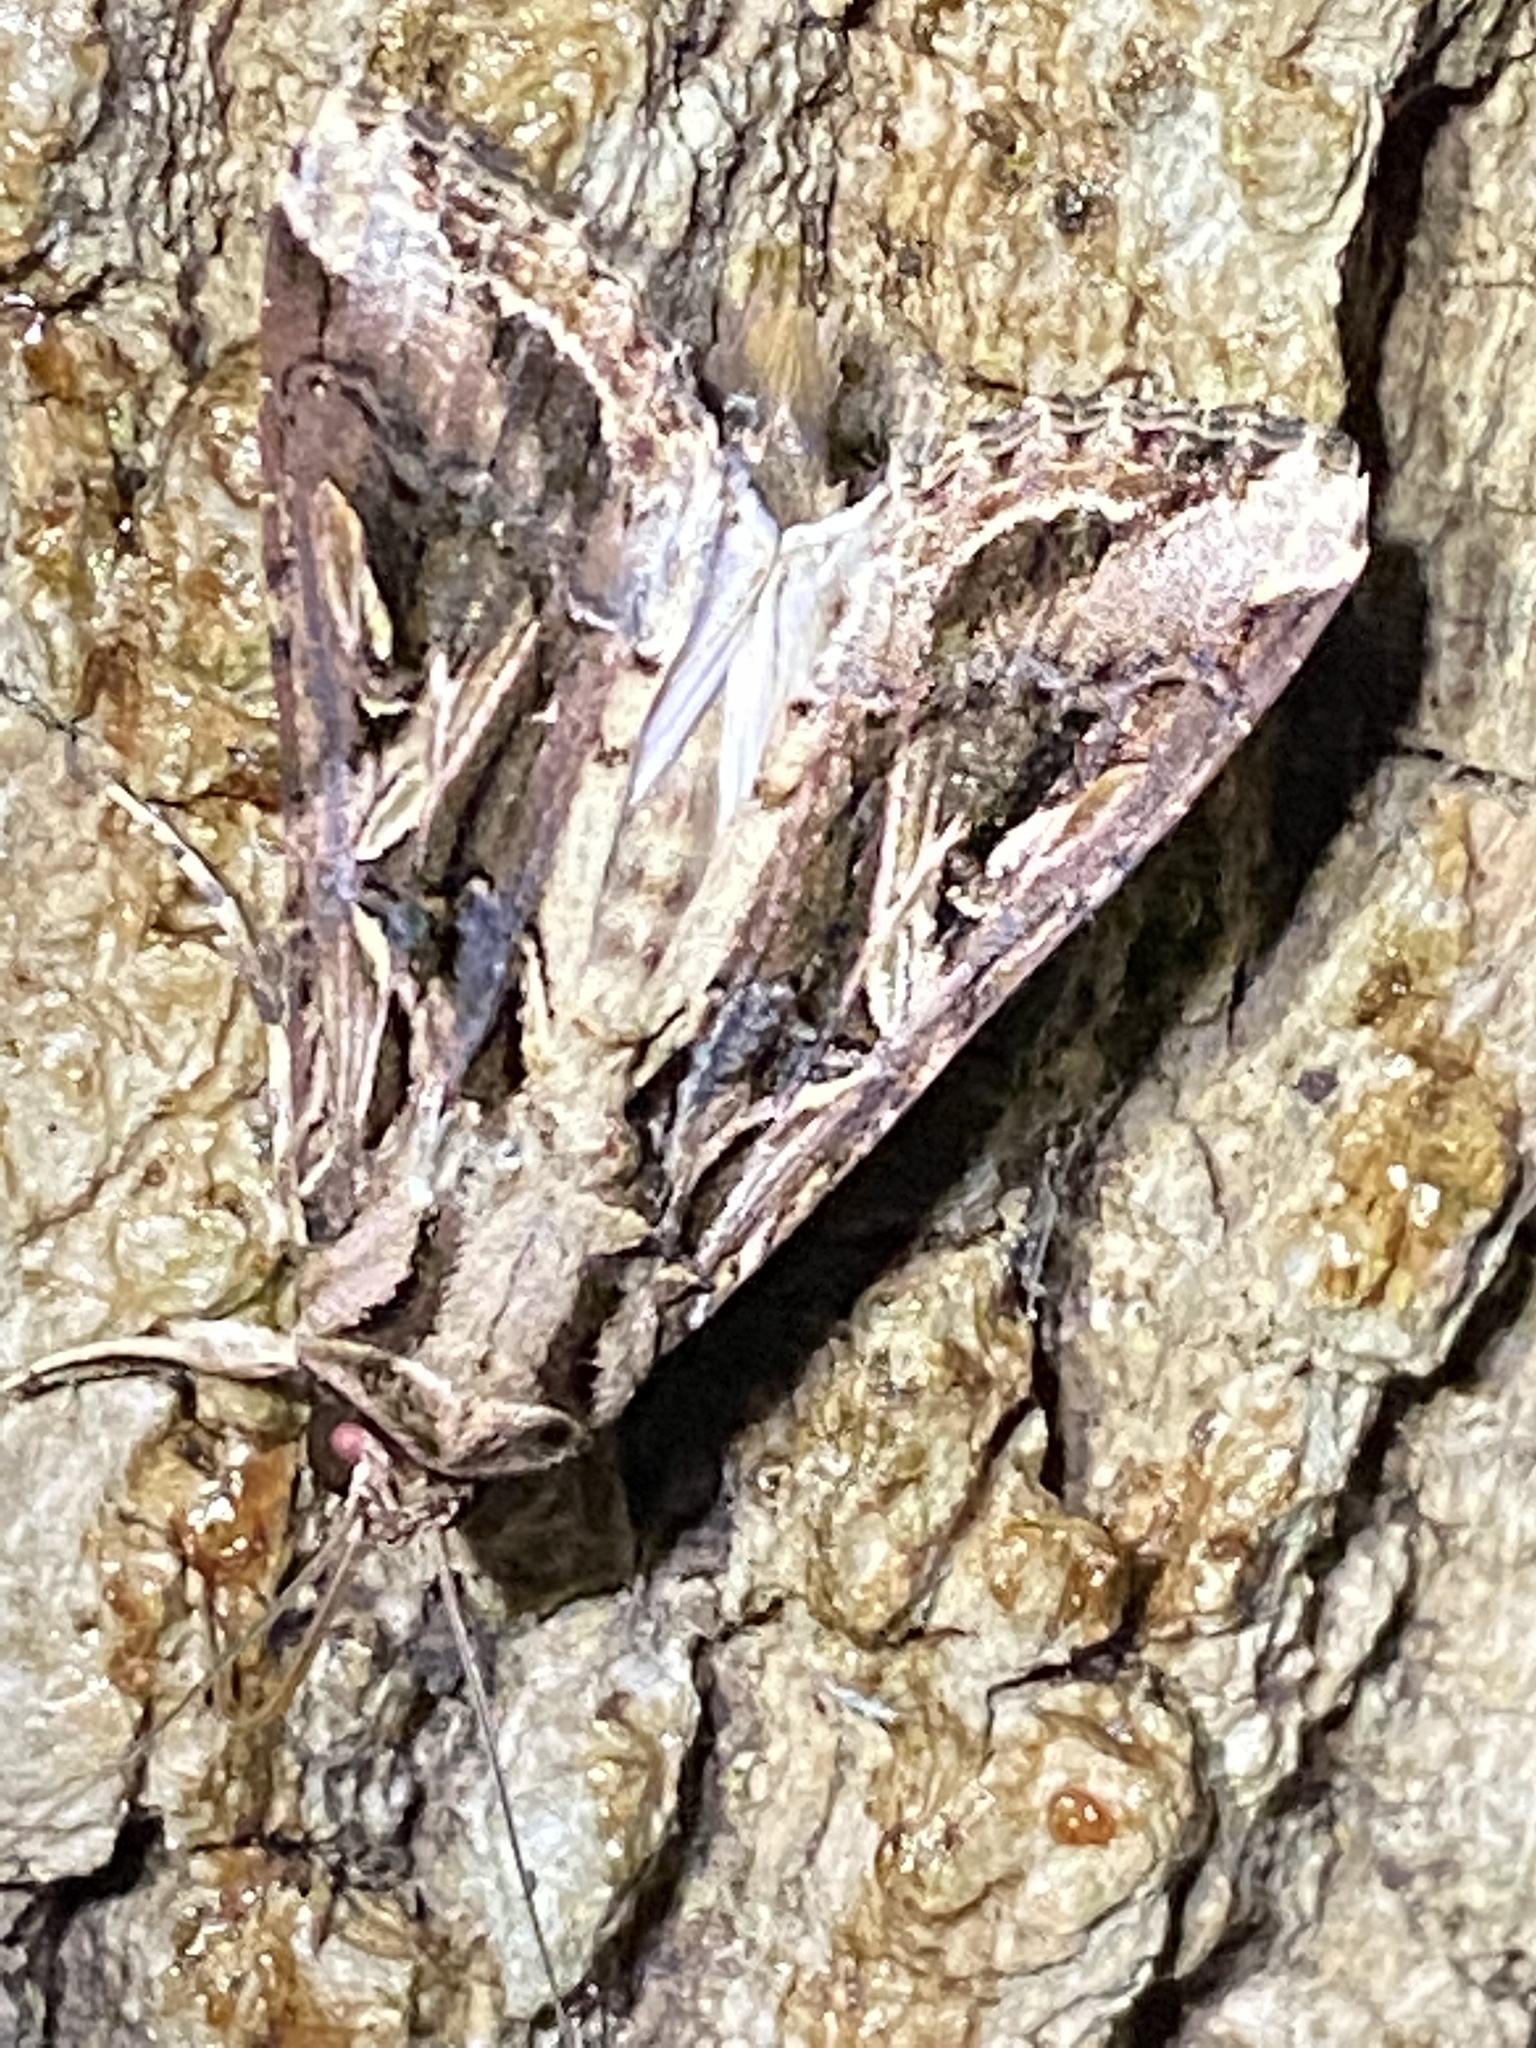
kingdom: Animalia
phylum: Arthropoda
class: Insecta
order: Lepidoptera
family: Noctuidae
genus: Spodoptera
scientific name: Spodoptera dolichos
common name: Sweetpotato armyworm
